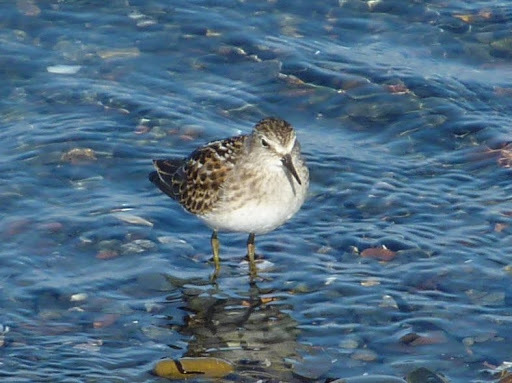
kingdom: Animalia
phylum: Chordata
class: Aves
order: Charadriiformes
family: Scolopacidae
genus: Calidris
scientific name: Calidris minutilla
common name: Least sandpiper
